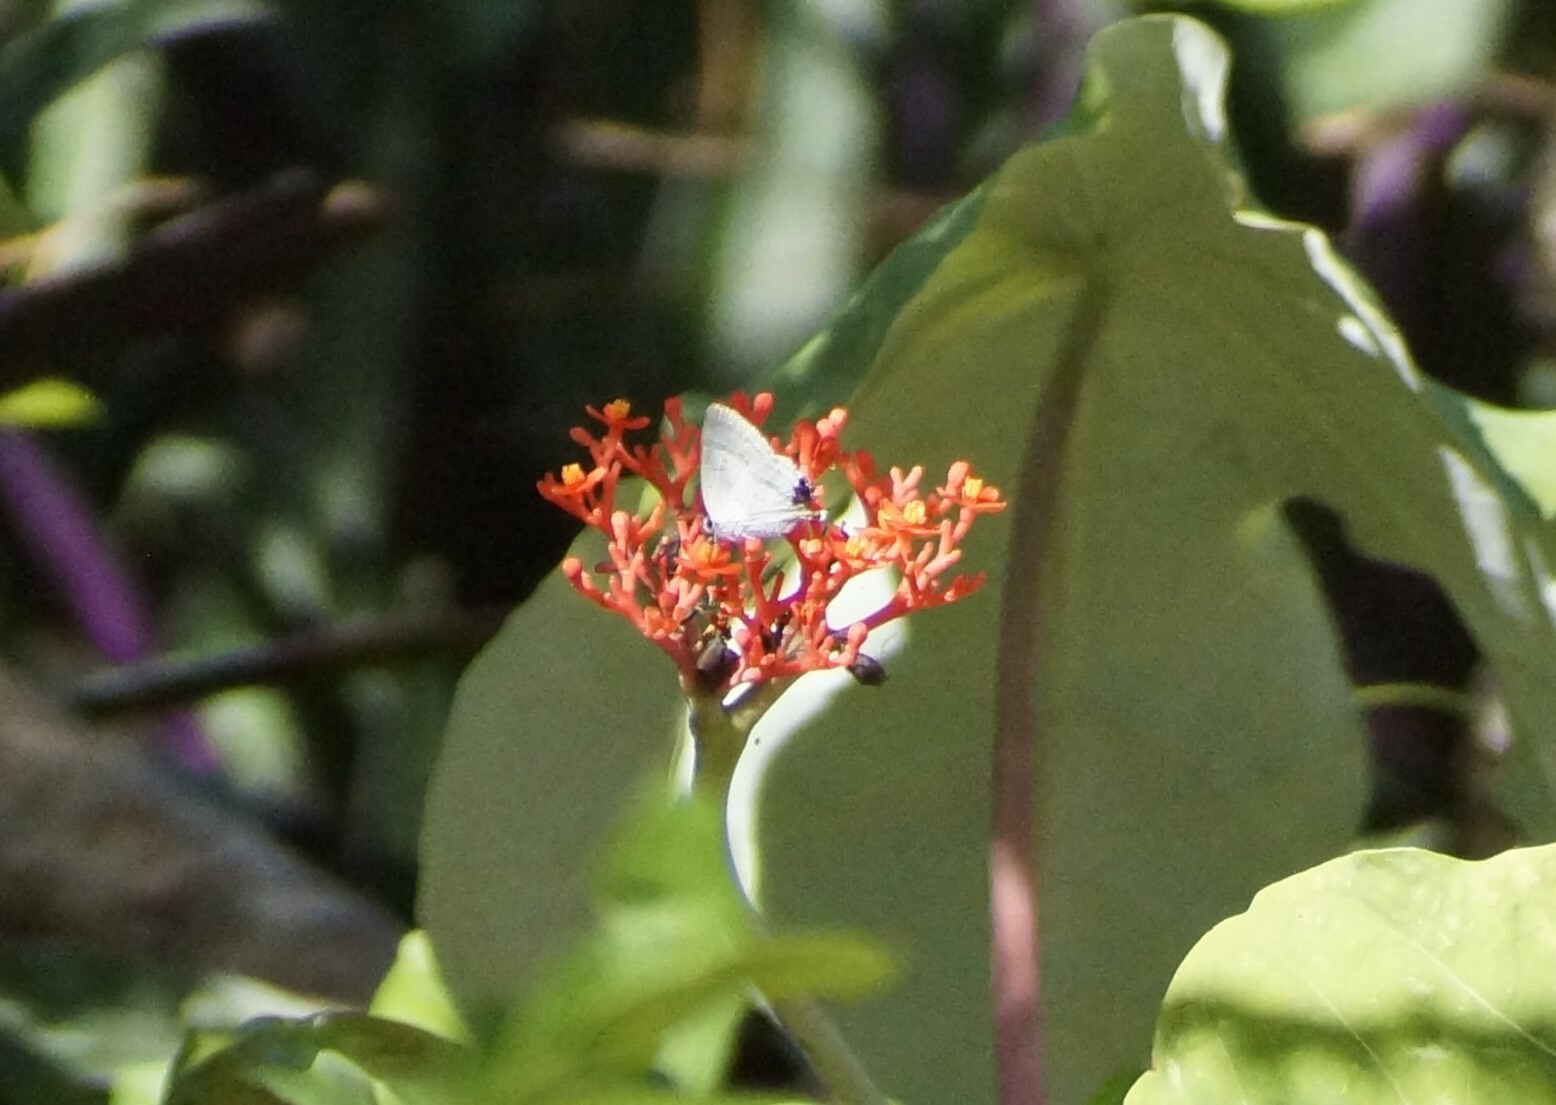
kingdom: Animalia
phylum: Arthropoda
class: Insecta
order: Lepidoptera
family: Lycaenidae
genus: Hypolycaena
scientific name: Hypolycaena phorbas
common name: Black-spotted flash
